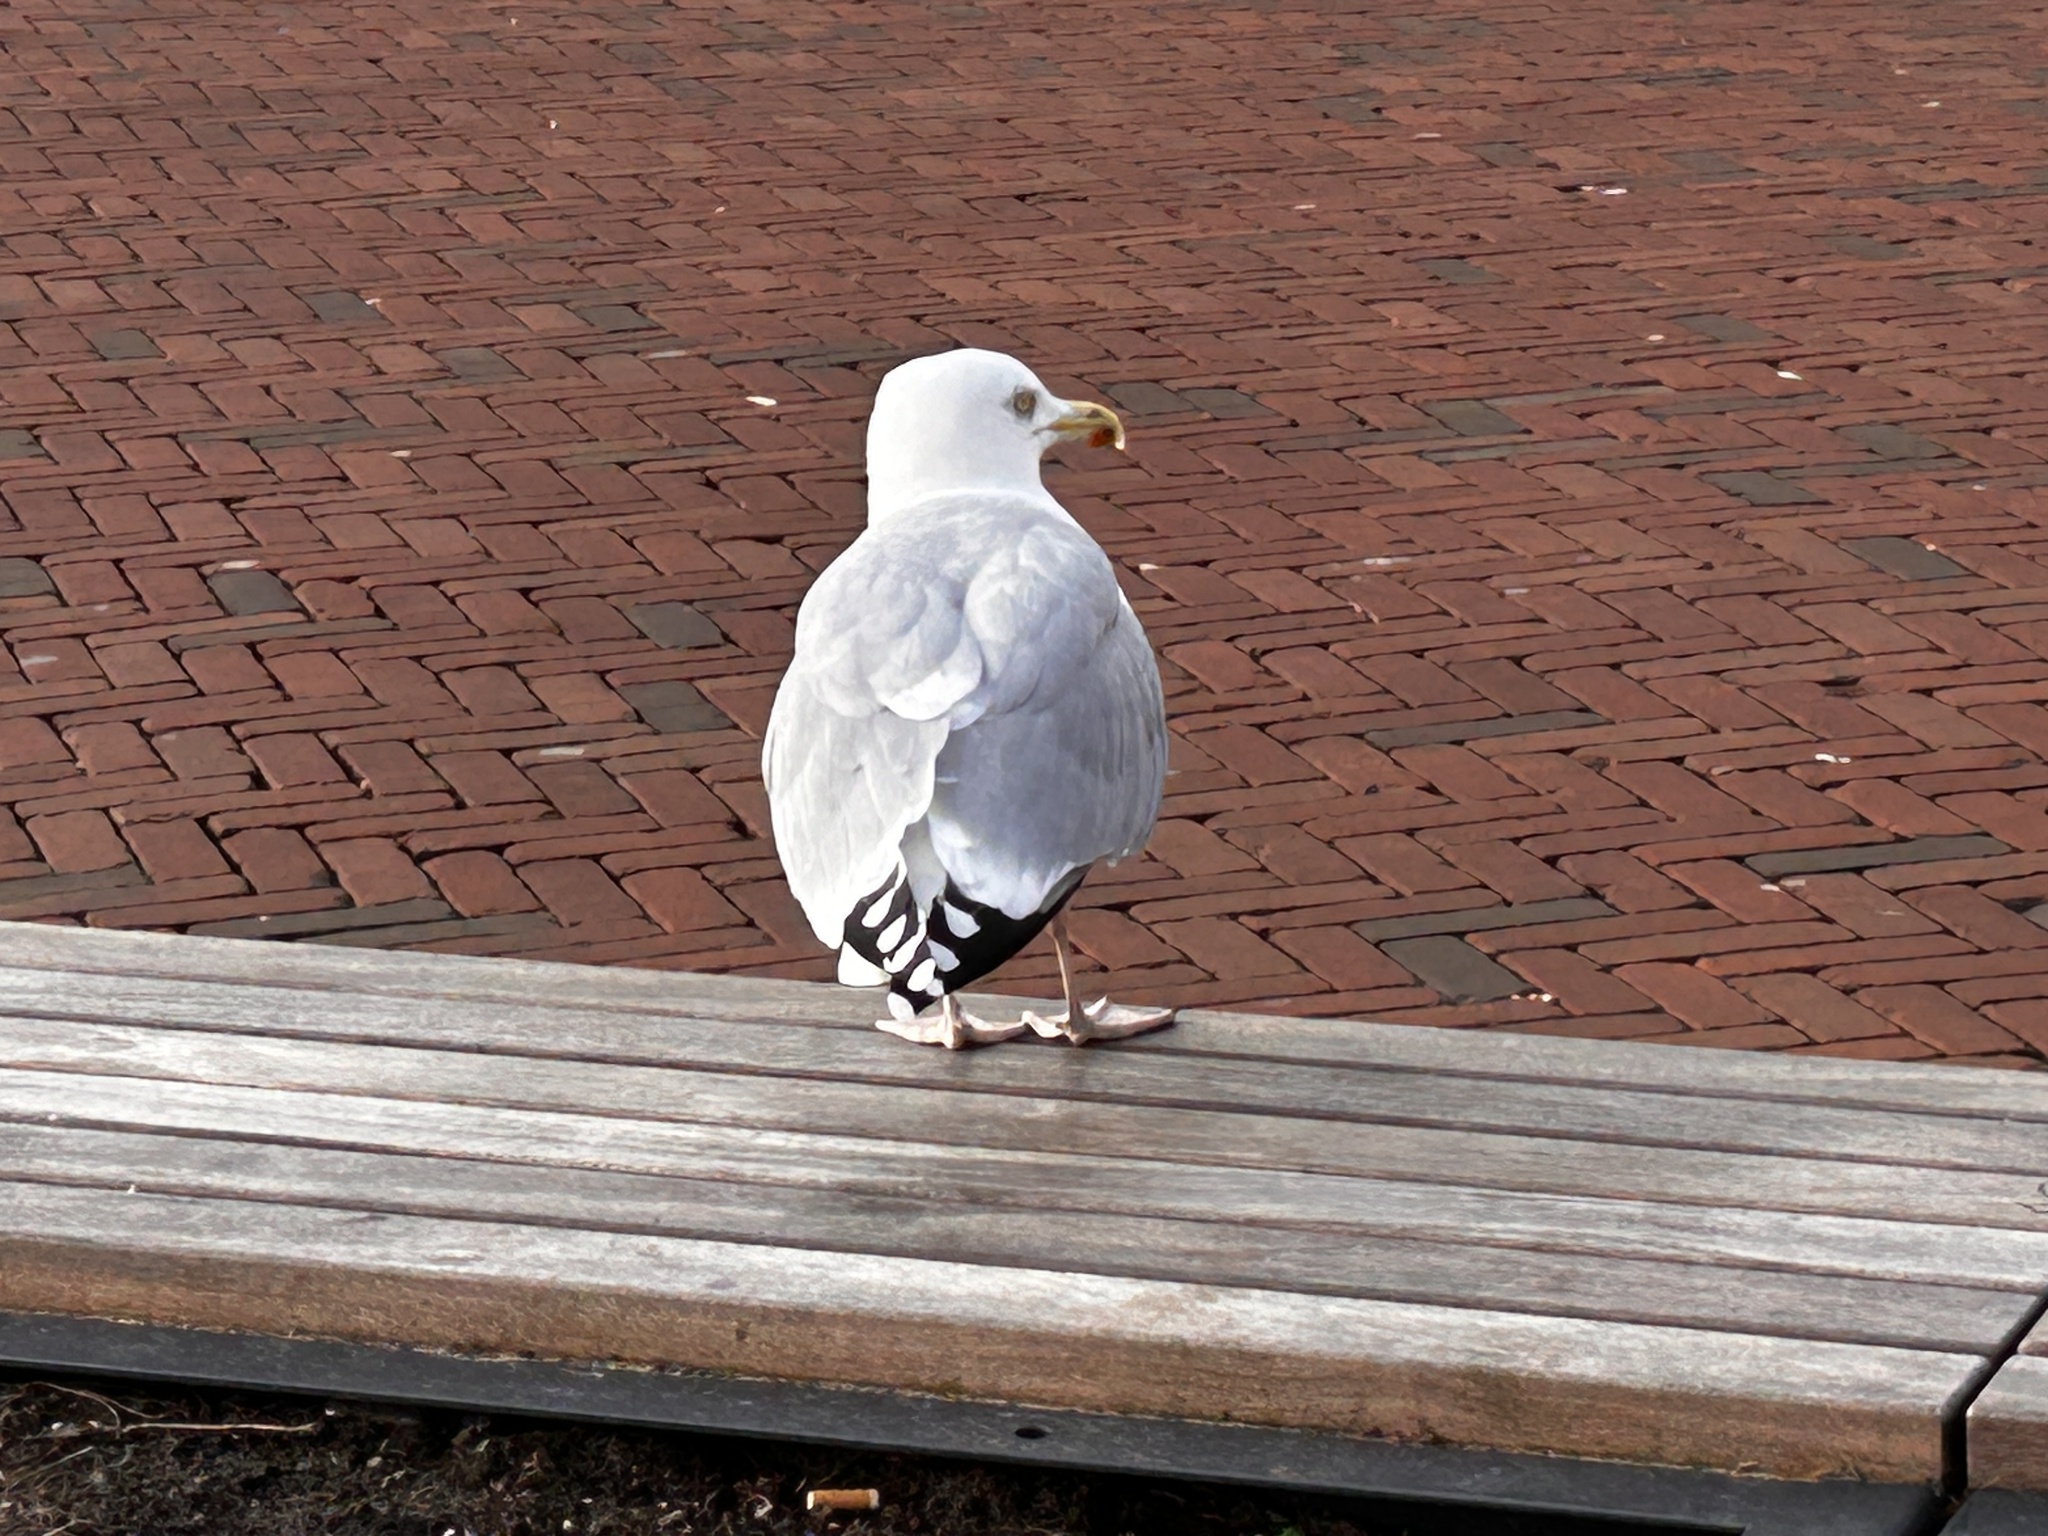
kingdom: Animalia
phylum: Chordata
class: Aves
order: Charadriiformes
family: Laridae
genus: Larus
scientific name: Larus argentatus
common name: Herring gull
